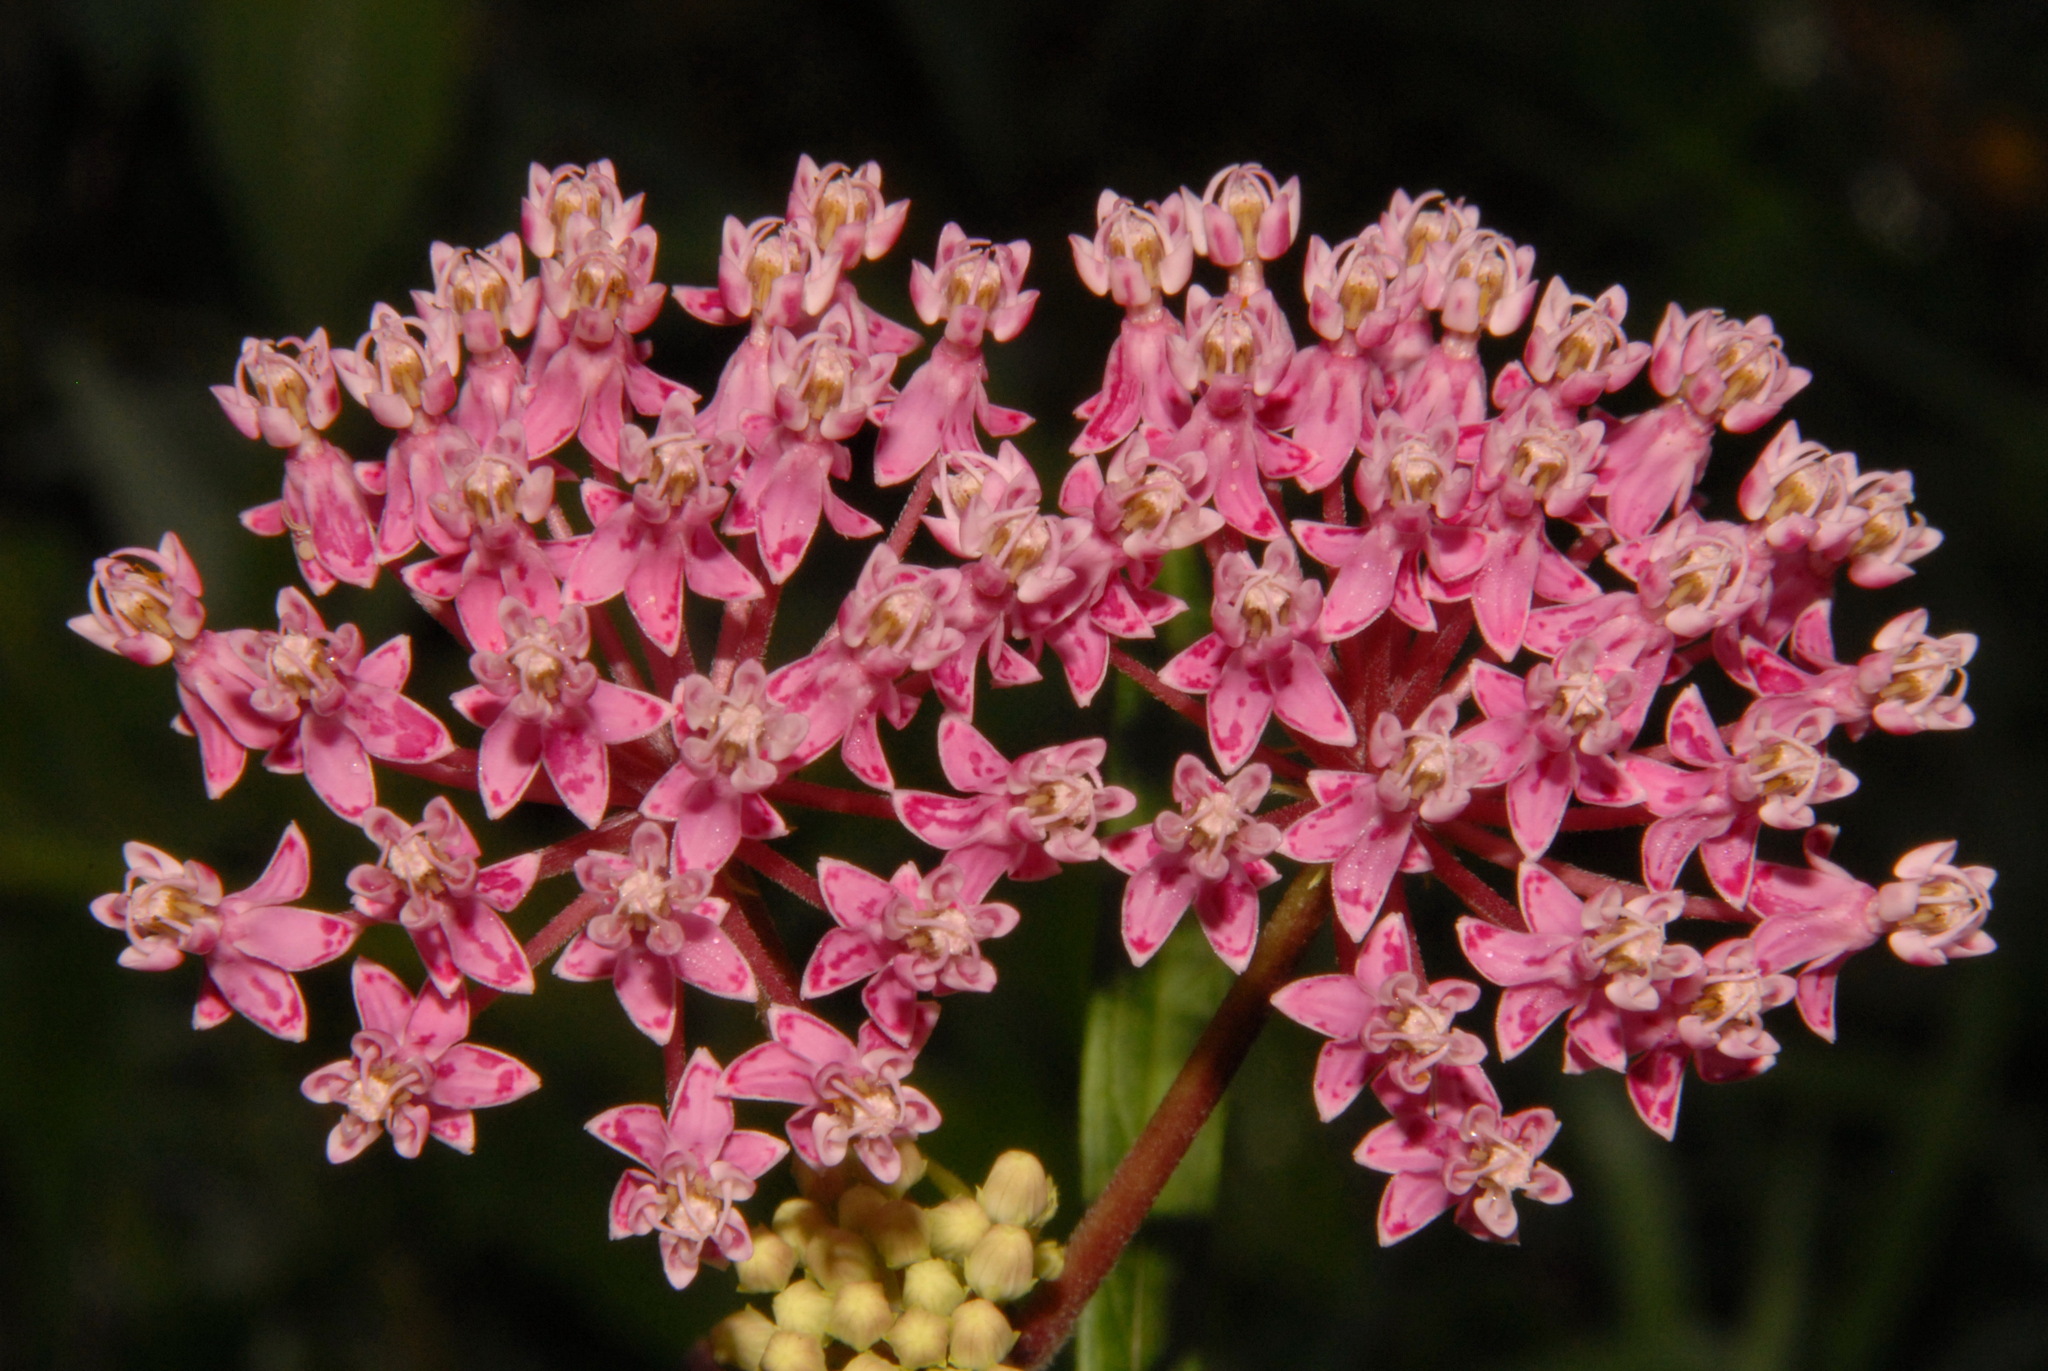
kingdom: Plantae
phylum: Tracheophyta
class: Magnoliopsida
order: Gentianales
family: Apocynaceae
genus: Asclepias
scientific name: Asclepias incarnata
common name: Swamp milkweed
